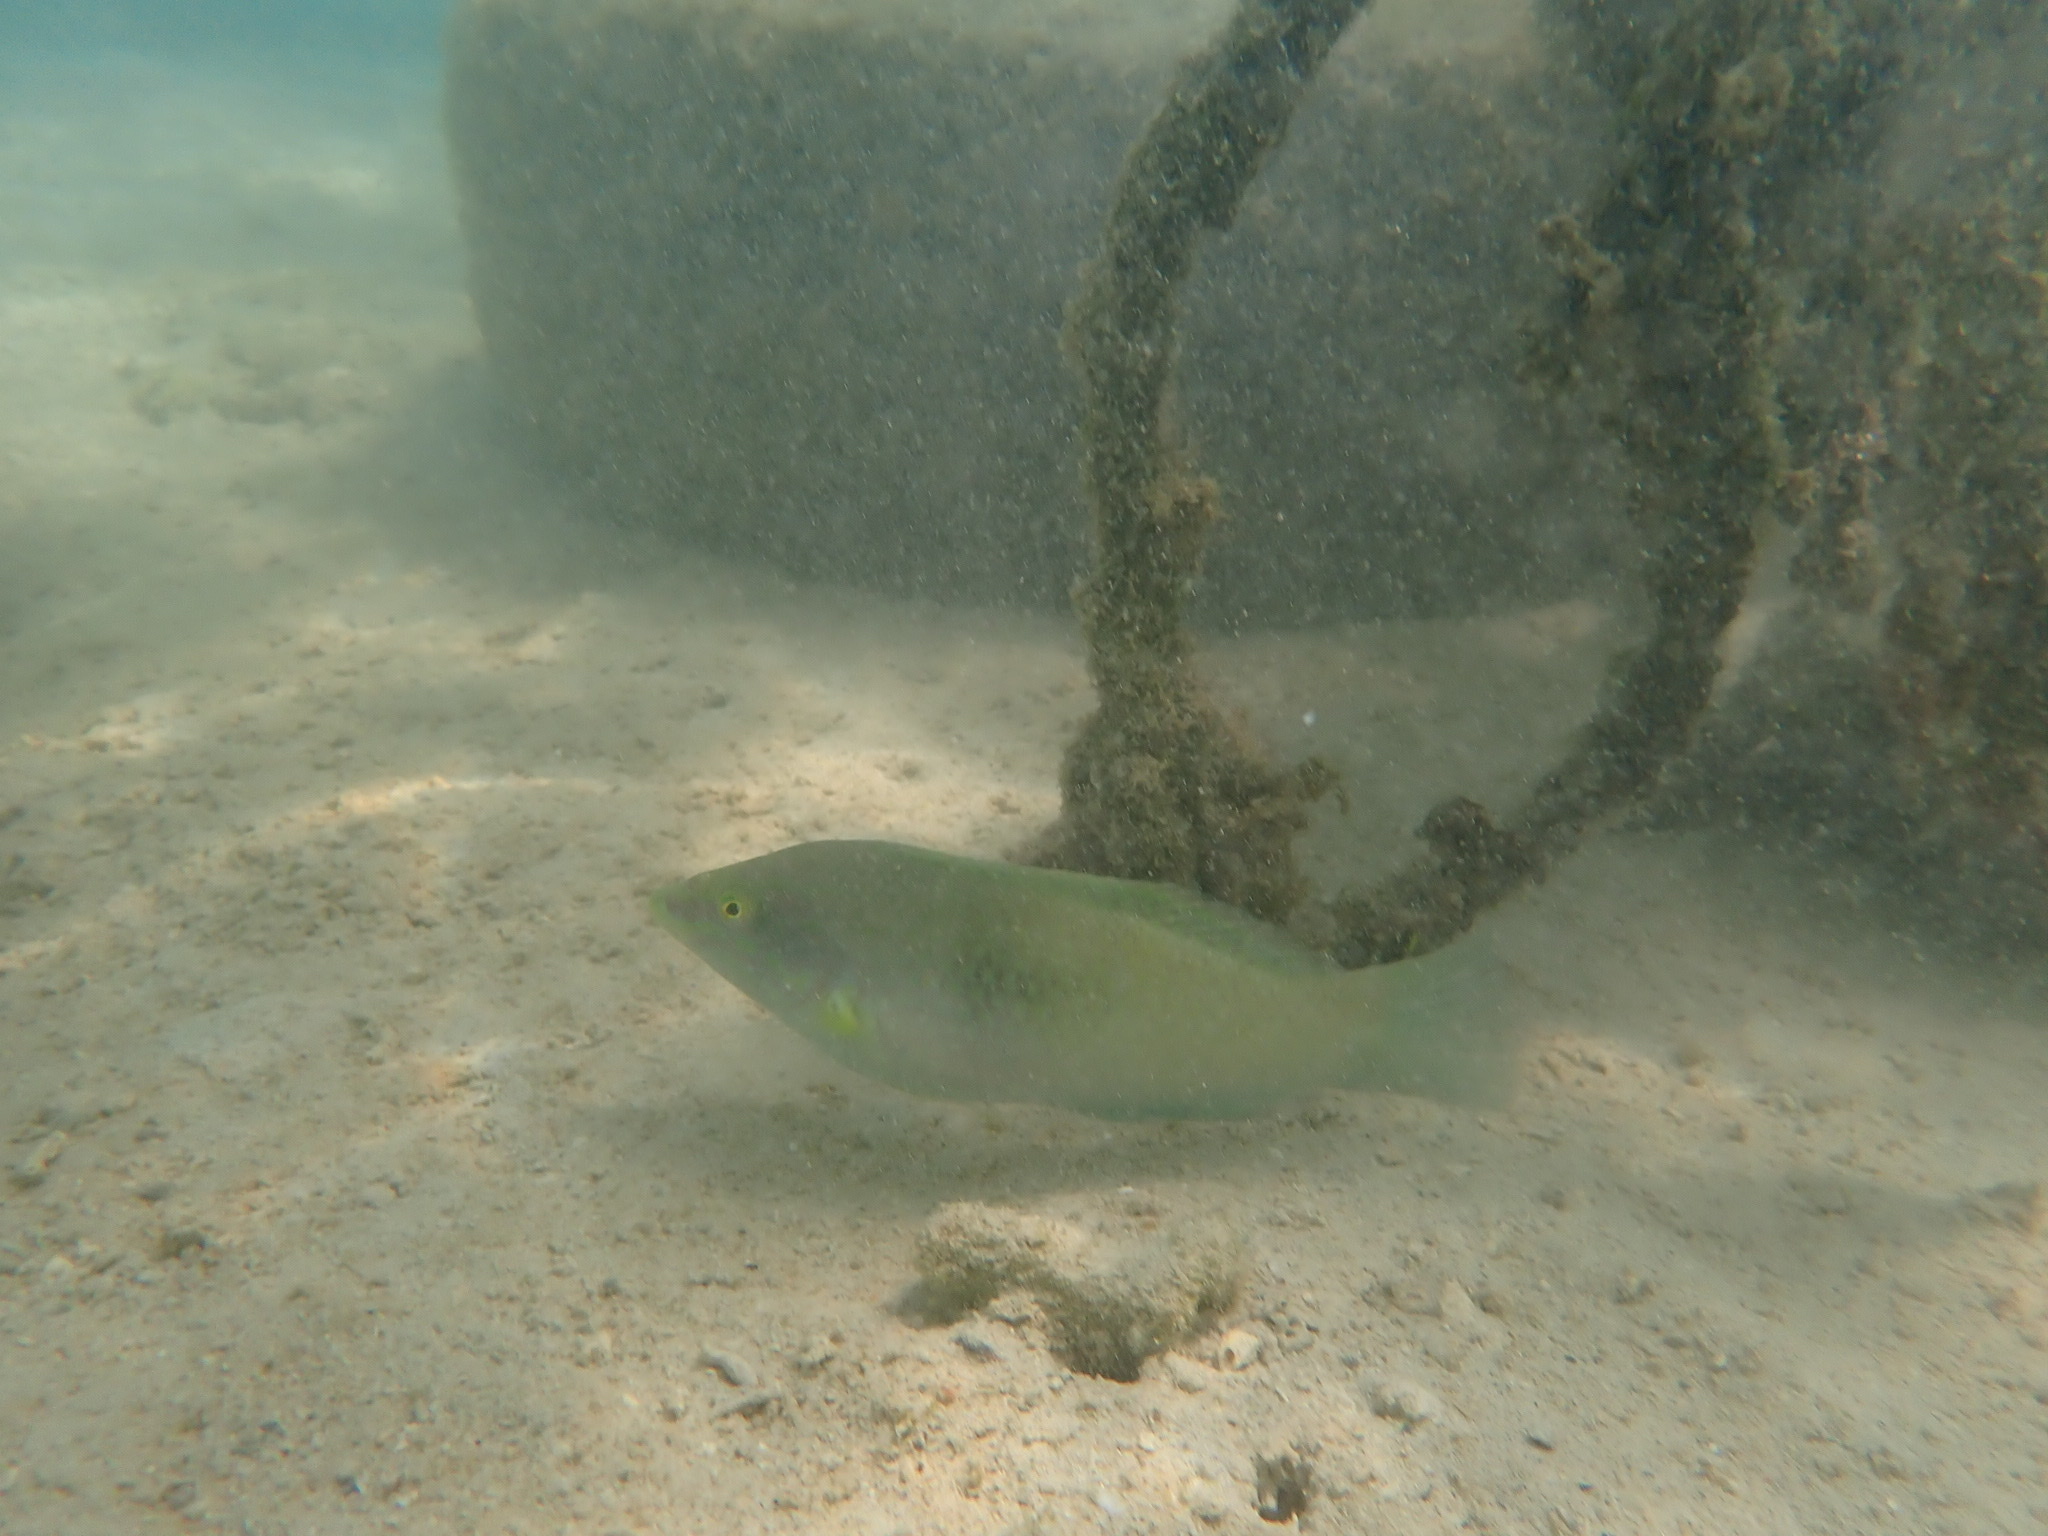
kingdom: Animalia
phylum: Chordata
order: Perciformes
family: Labridae
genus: Halichoeres
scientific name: Halichoeres chloropterus
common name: Pastel-green wrasse
